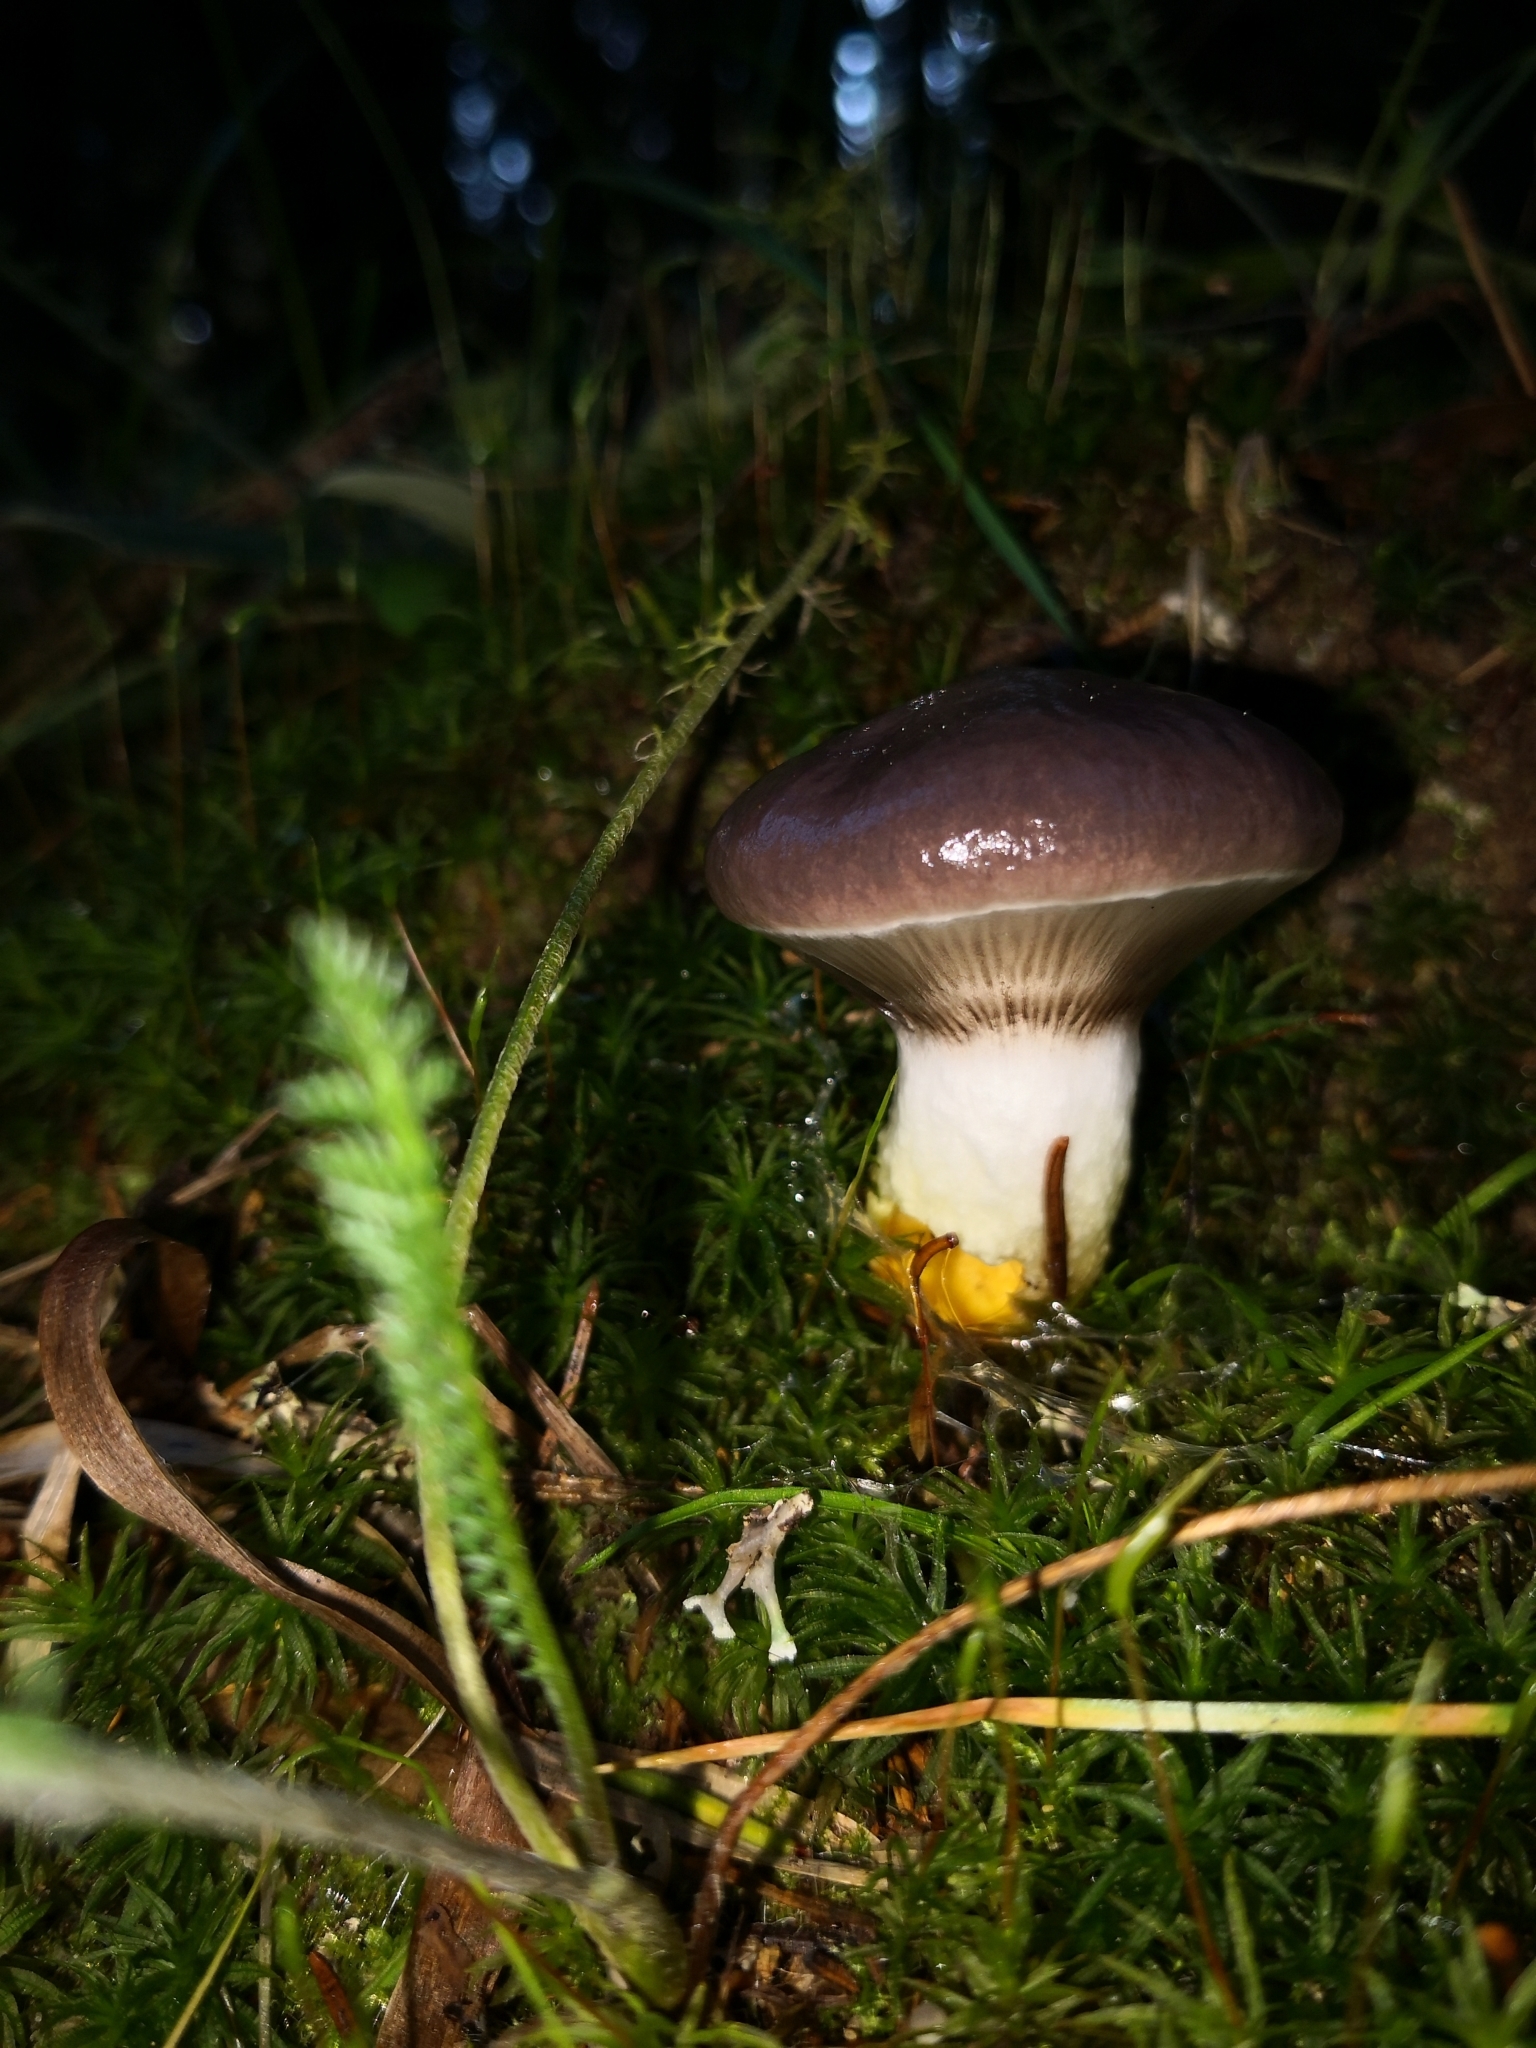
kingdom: Fungi
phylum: Basidiomycota
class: Agaricomycetes
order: Boletales
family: Gomphidiaceae
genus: Gomphidius
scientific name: Gomphidius glutinosus
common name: Slimy spike
